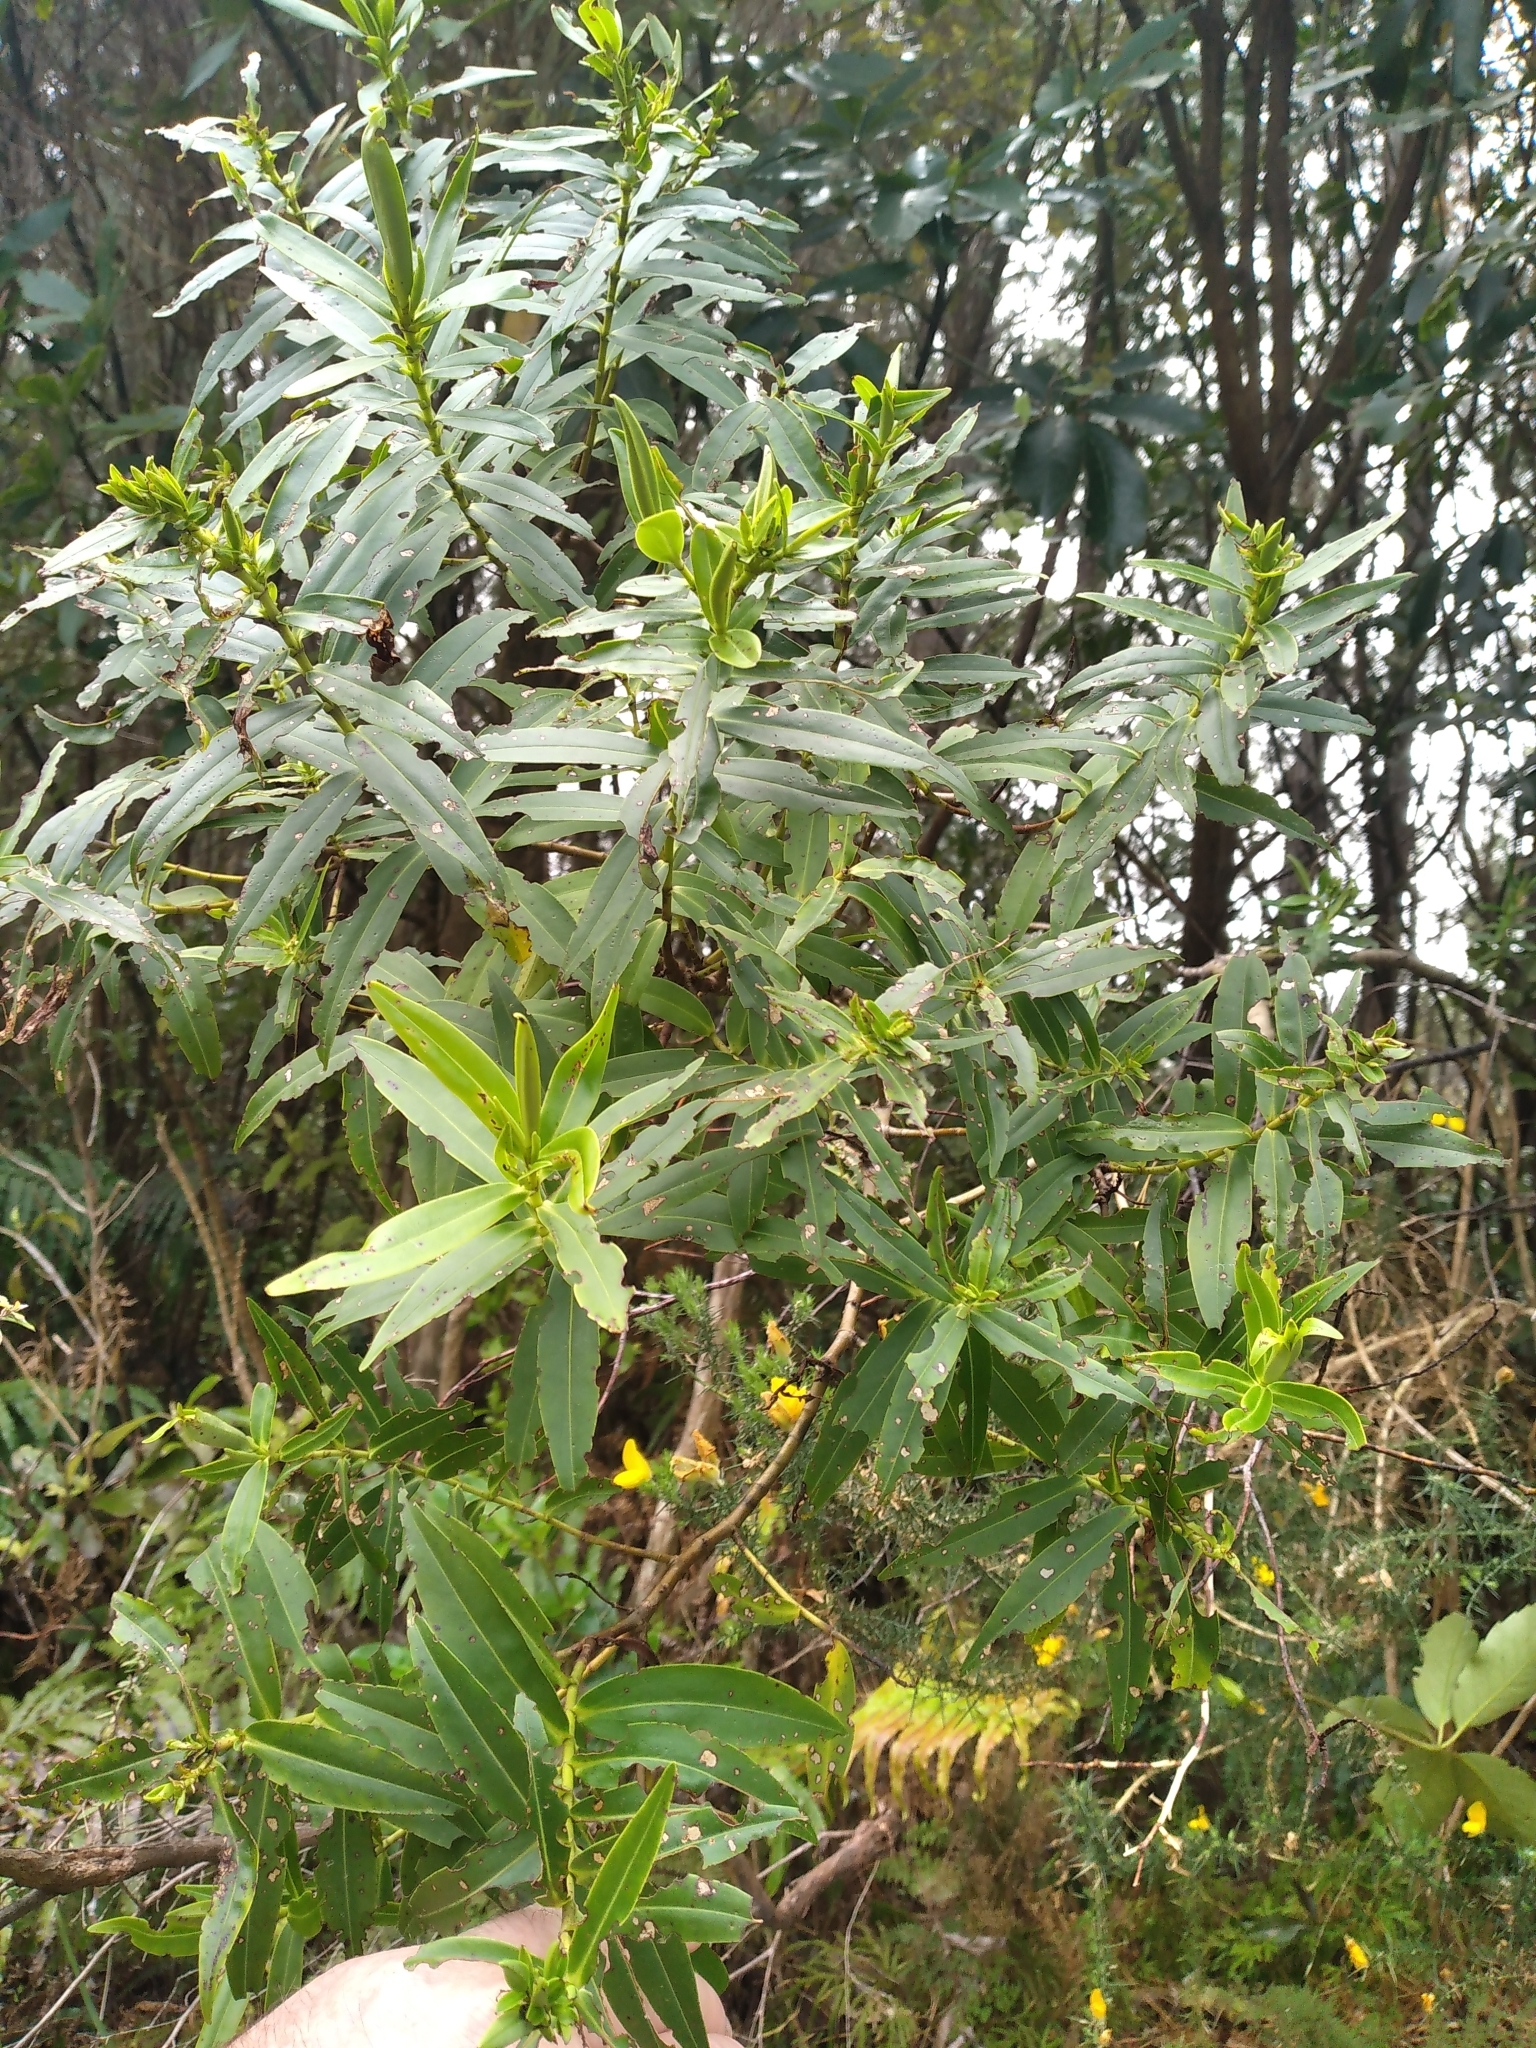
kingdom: Plantae
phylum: Tracheophyta
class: Magnoliopsida
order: Lamiales
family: Plantaginaceae
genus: Veronica
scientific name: Veronica stricta
